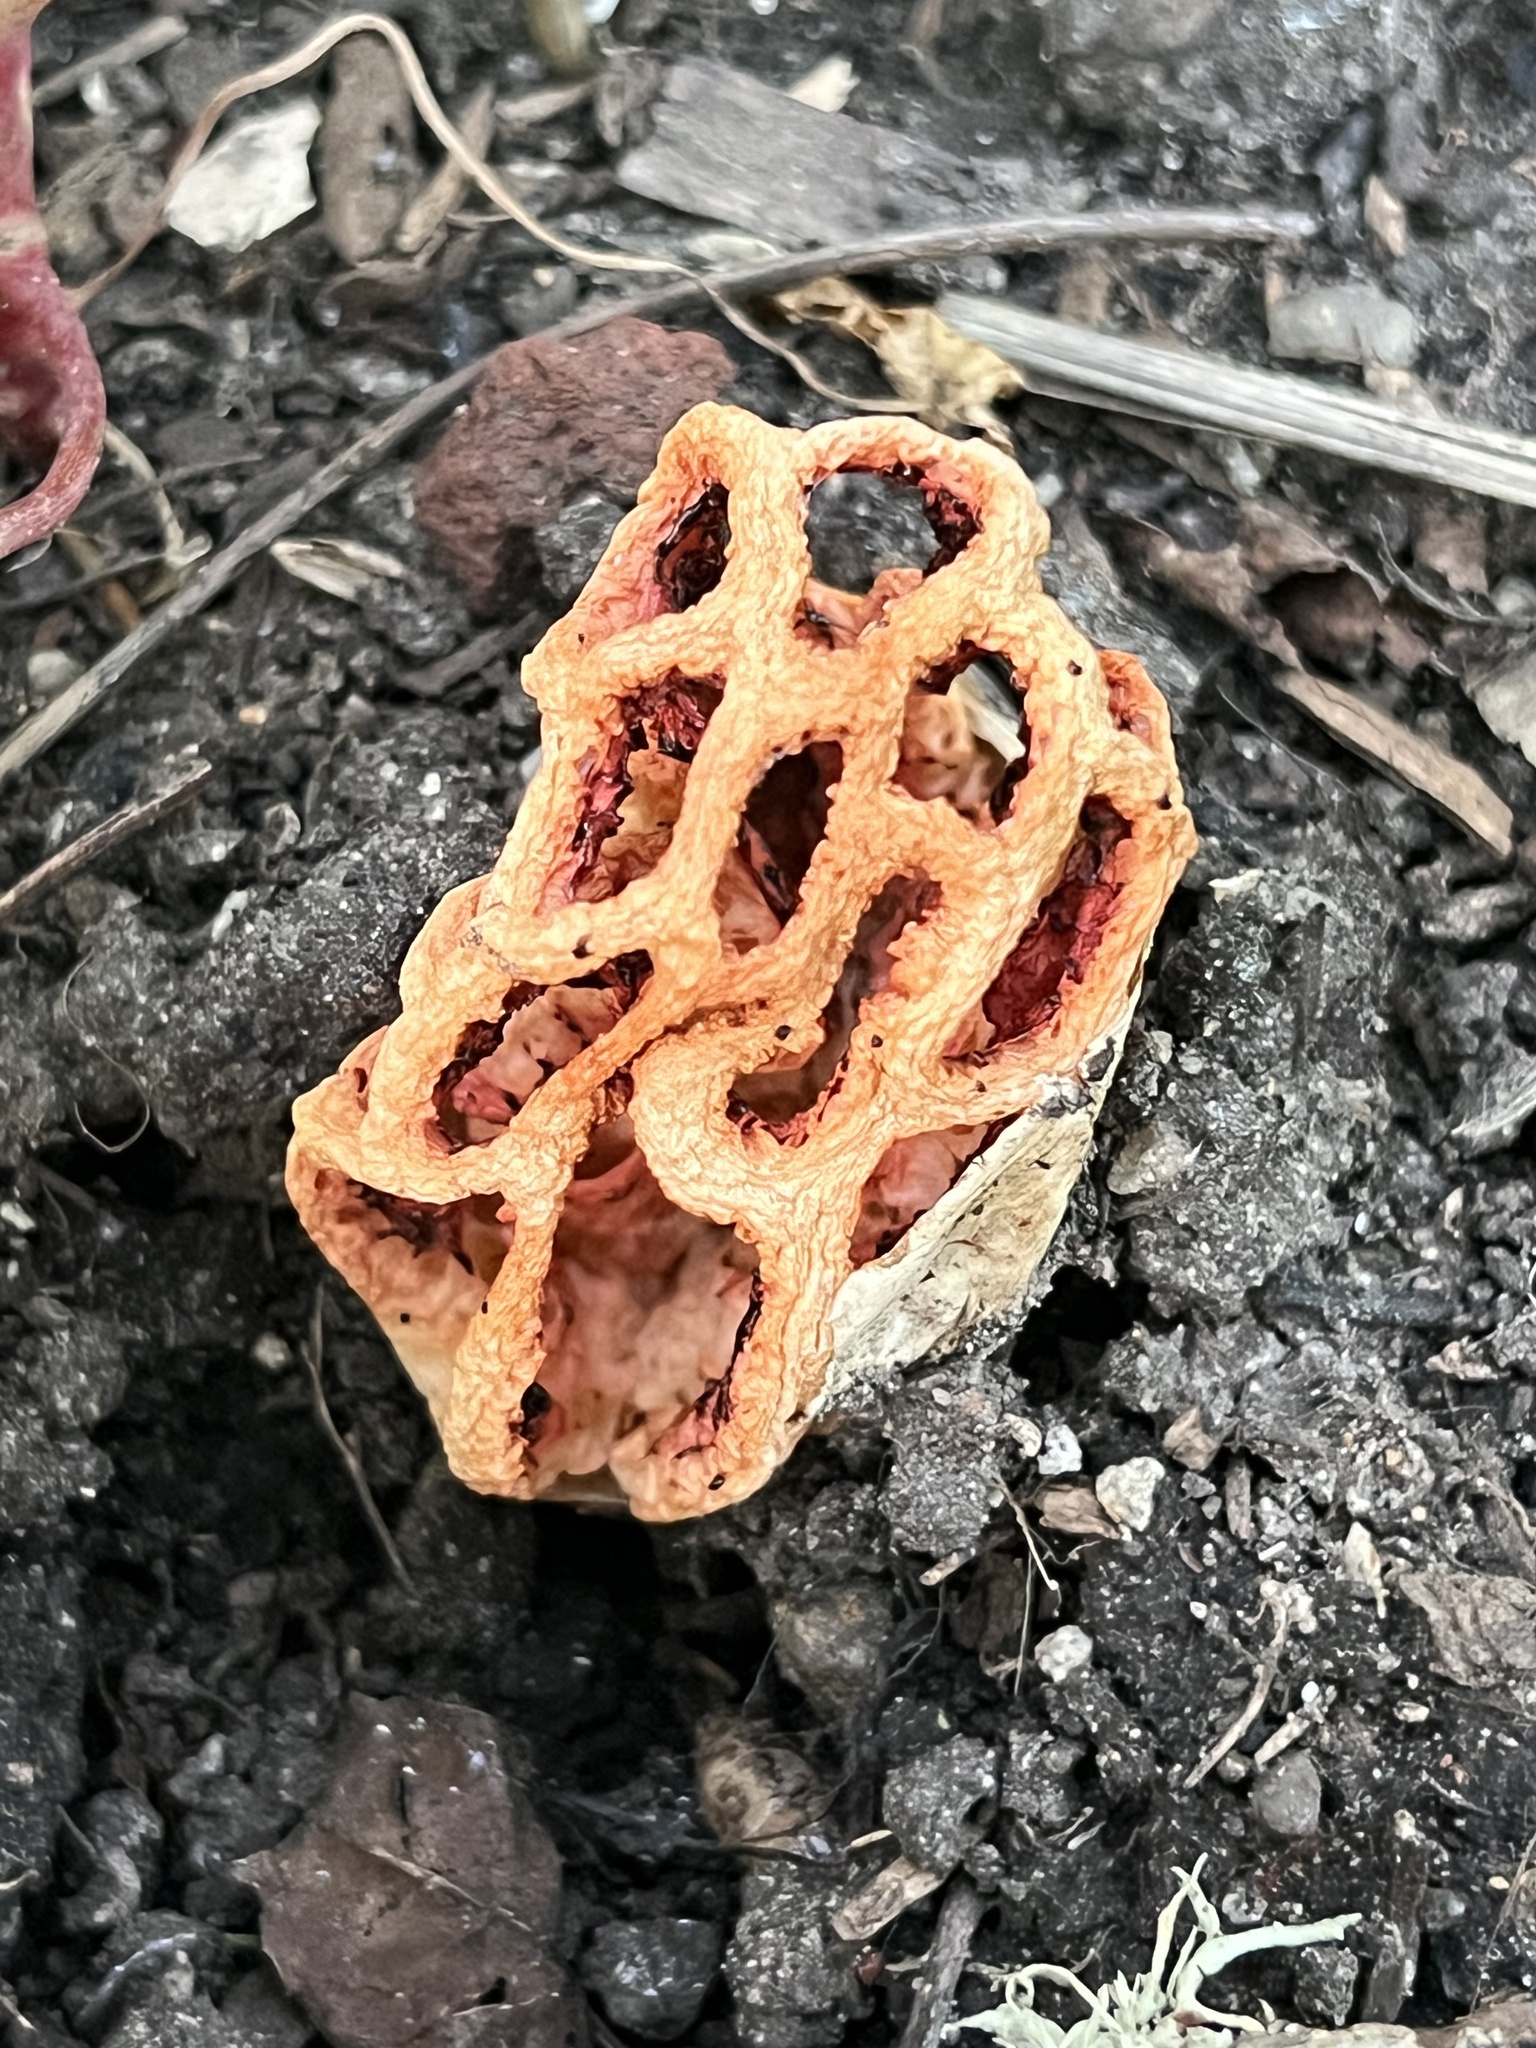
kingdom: Fungi
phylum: Basidiomycota
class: Agaricomycetes
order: Phallales
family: Phallaceae
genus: Clathrus
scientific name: Clathrus ruber
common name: Red cage
